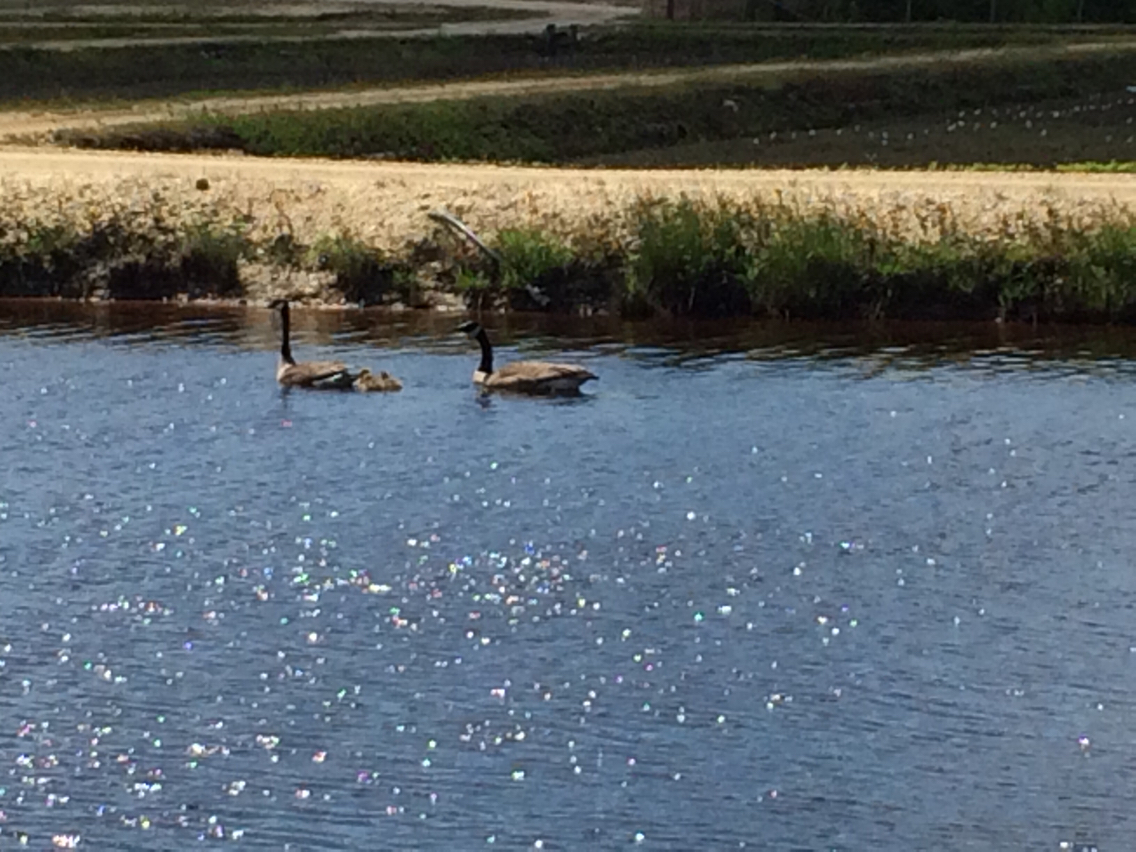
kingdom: Animalia
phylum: Chordata
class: Aves
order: Anseriformes
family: Anatidae
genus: Branta
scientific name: Branta canadensis
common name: Canada goose
